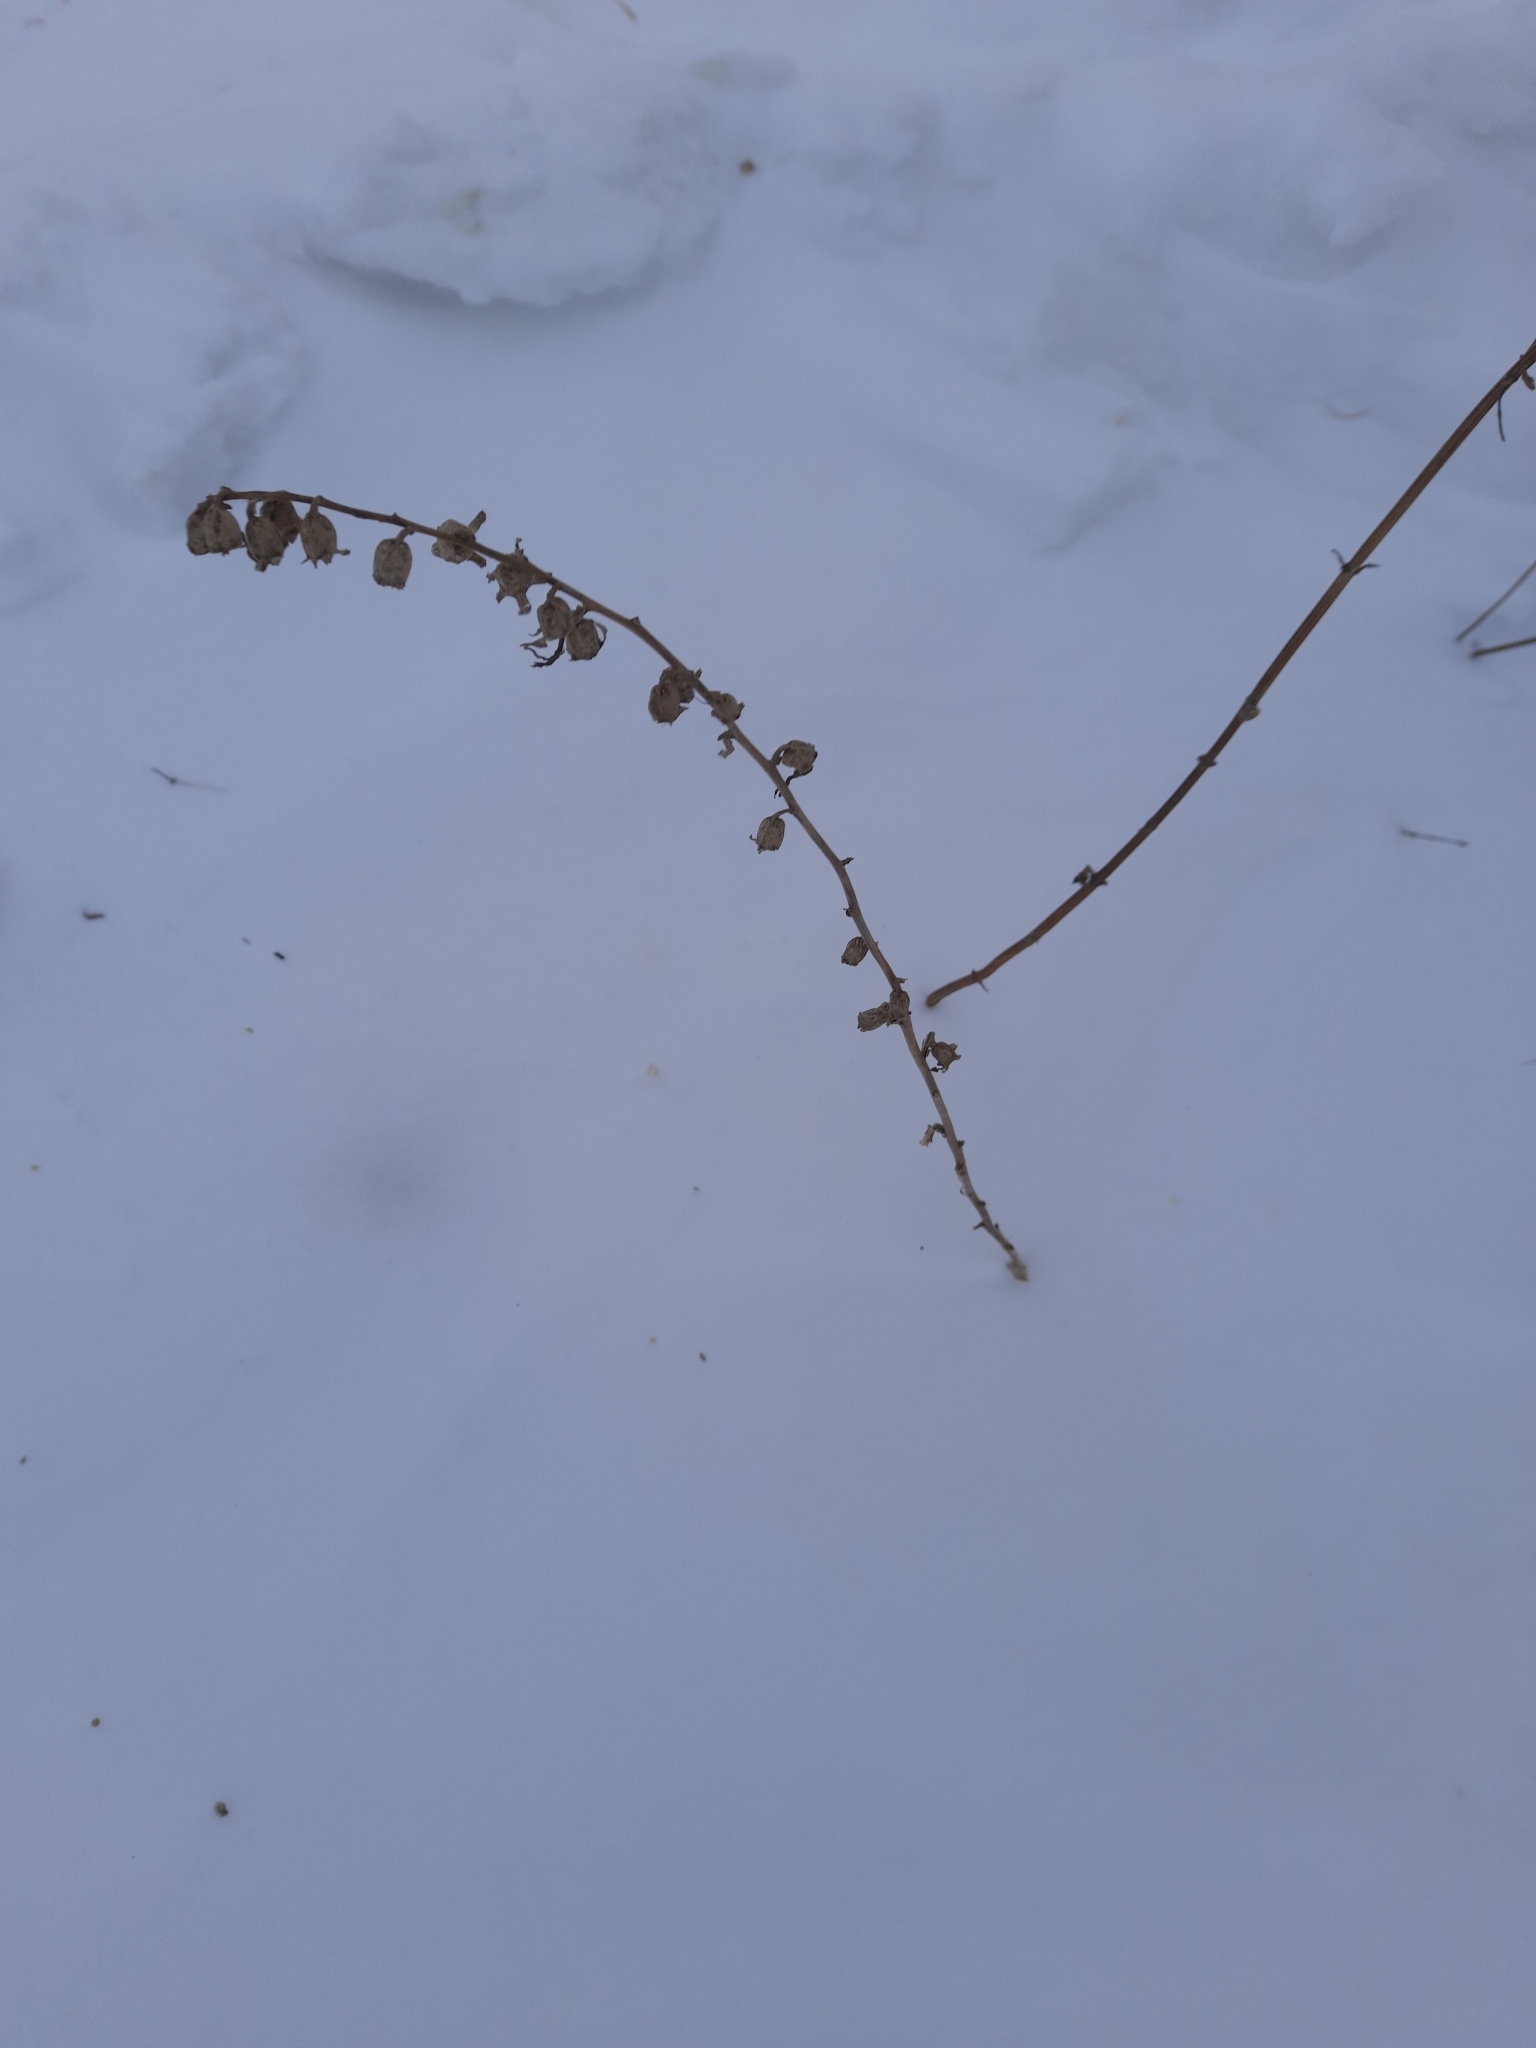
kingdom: Plantae
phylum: Tracheophyta
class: Magnoliopsida
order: Asterales
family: Campanulaceae
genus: Campanula
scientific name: Campanula rapunculoides
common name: Creeping bellflower
